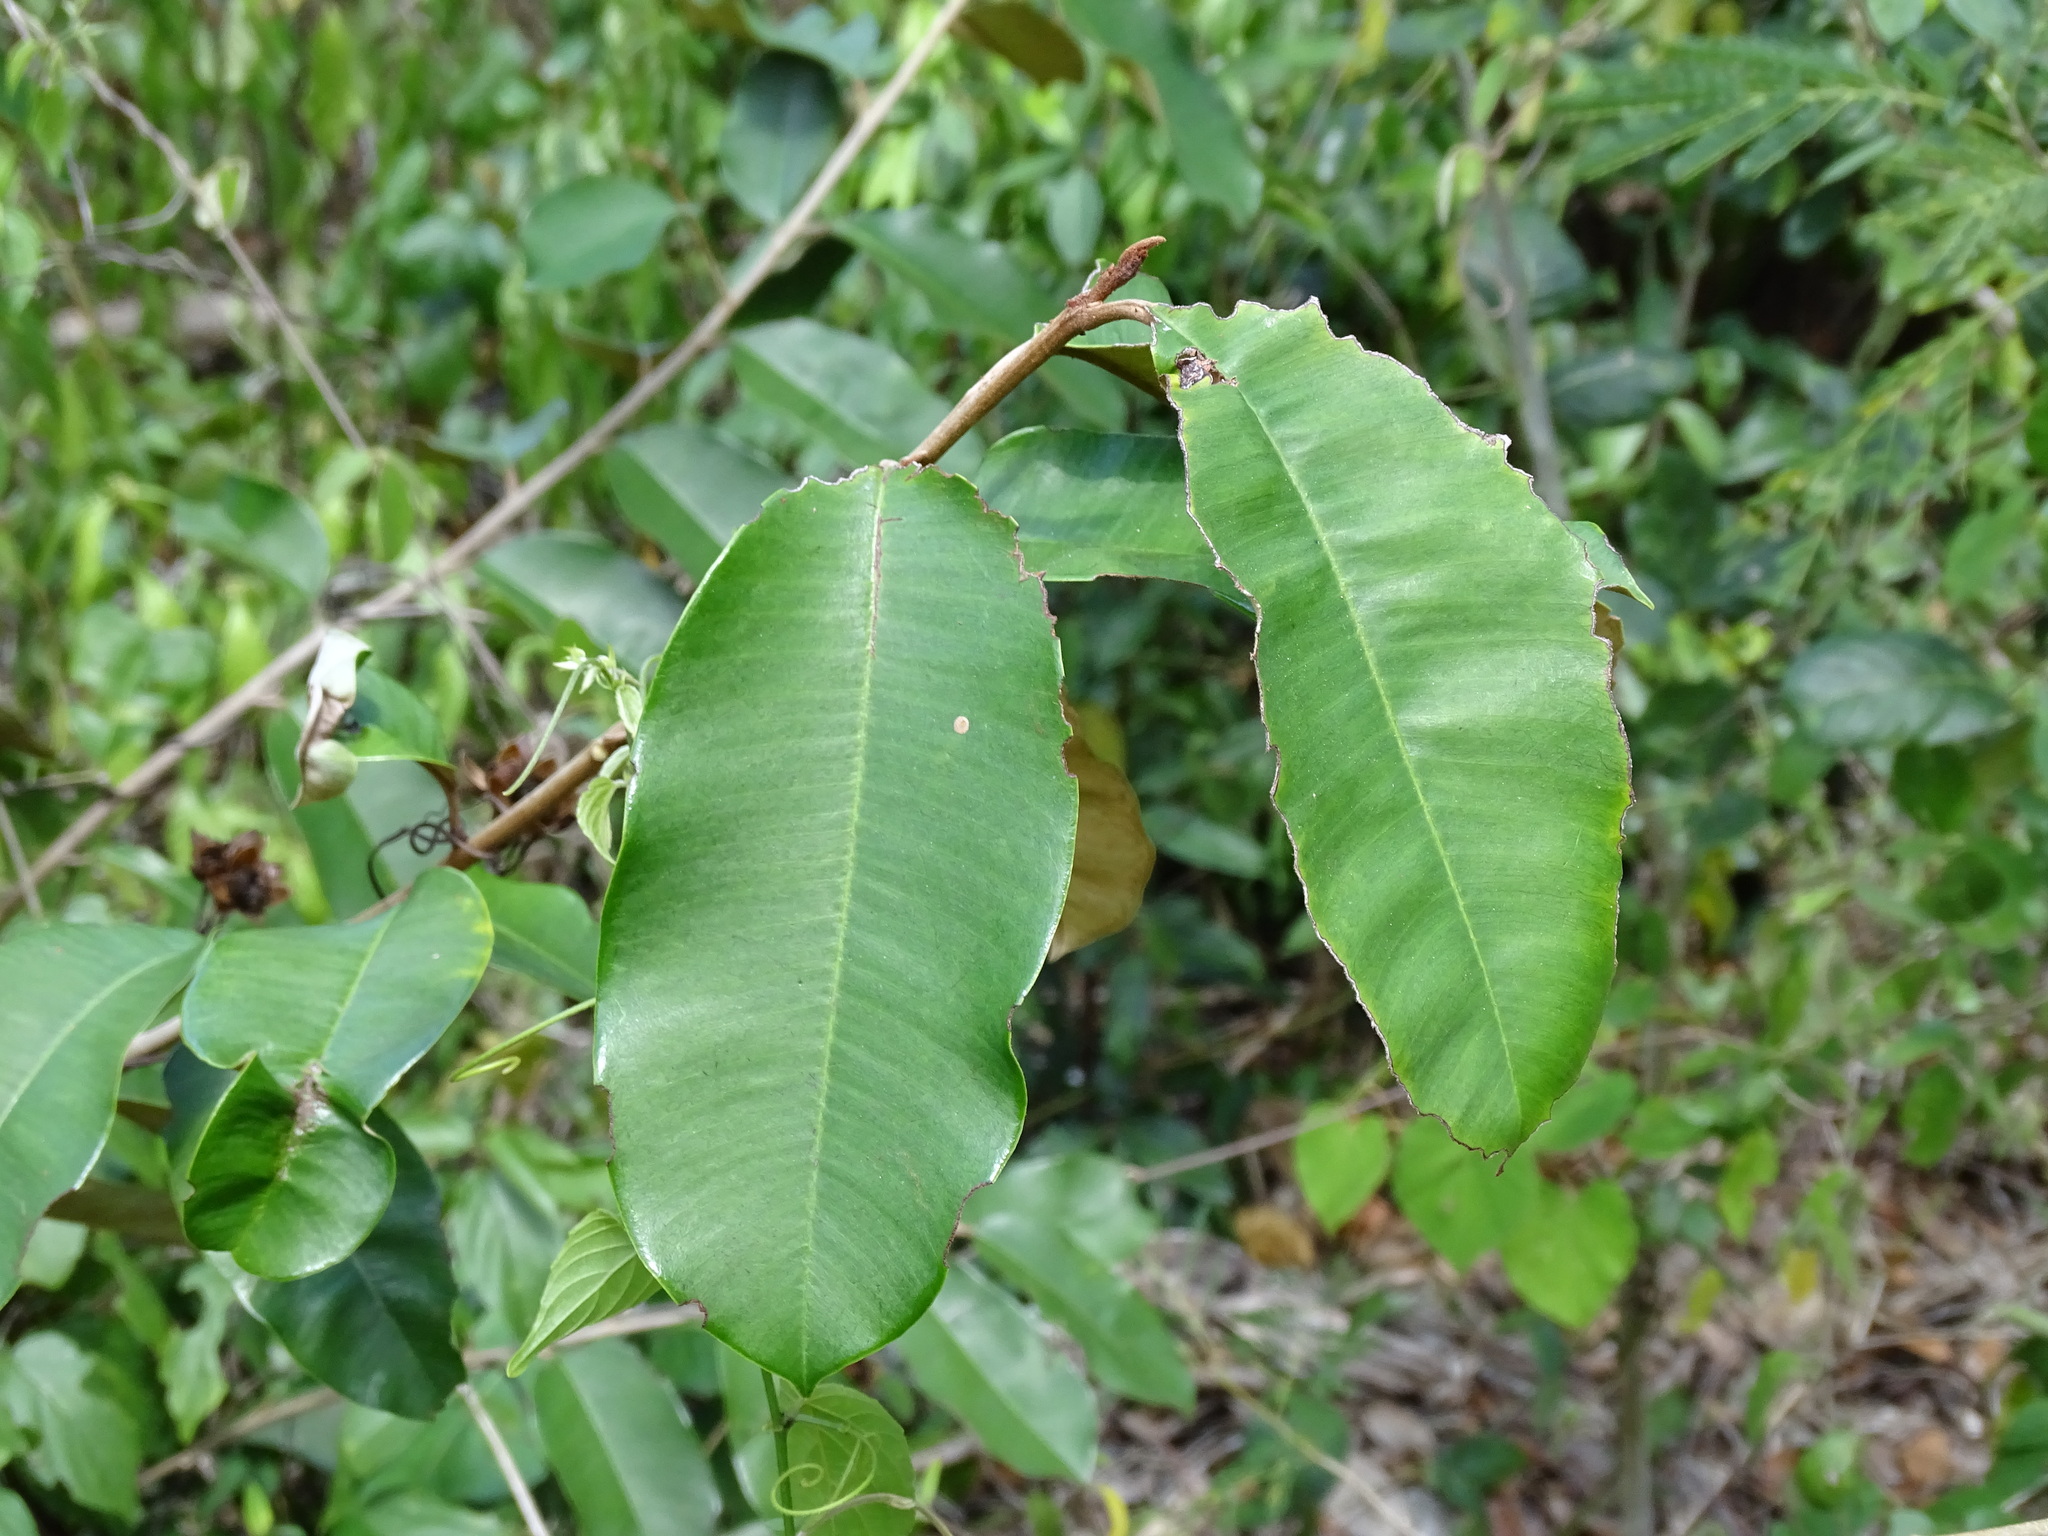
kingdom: Plantae
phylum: Tracheophyta
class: Magnoliopsida
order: Ericales
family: Sapotaceae
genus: Chrysophyllum
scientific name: Chrysophyllum mexicanum
